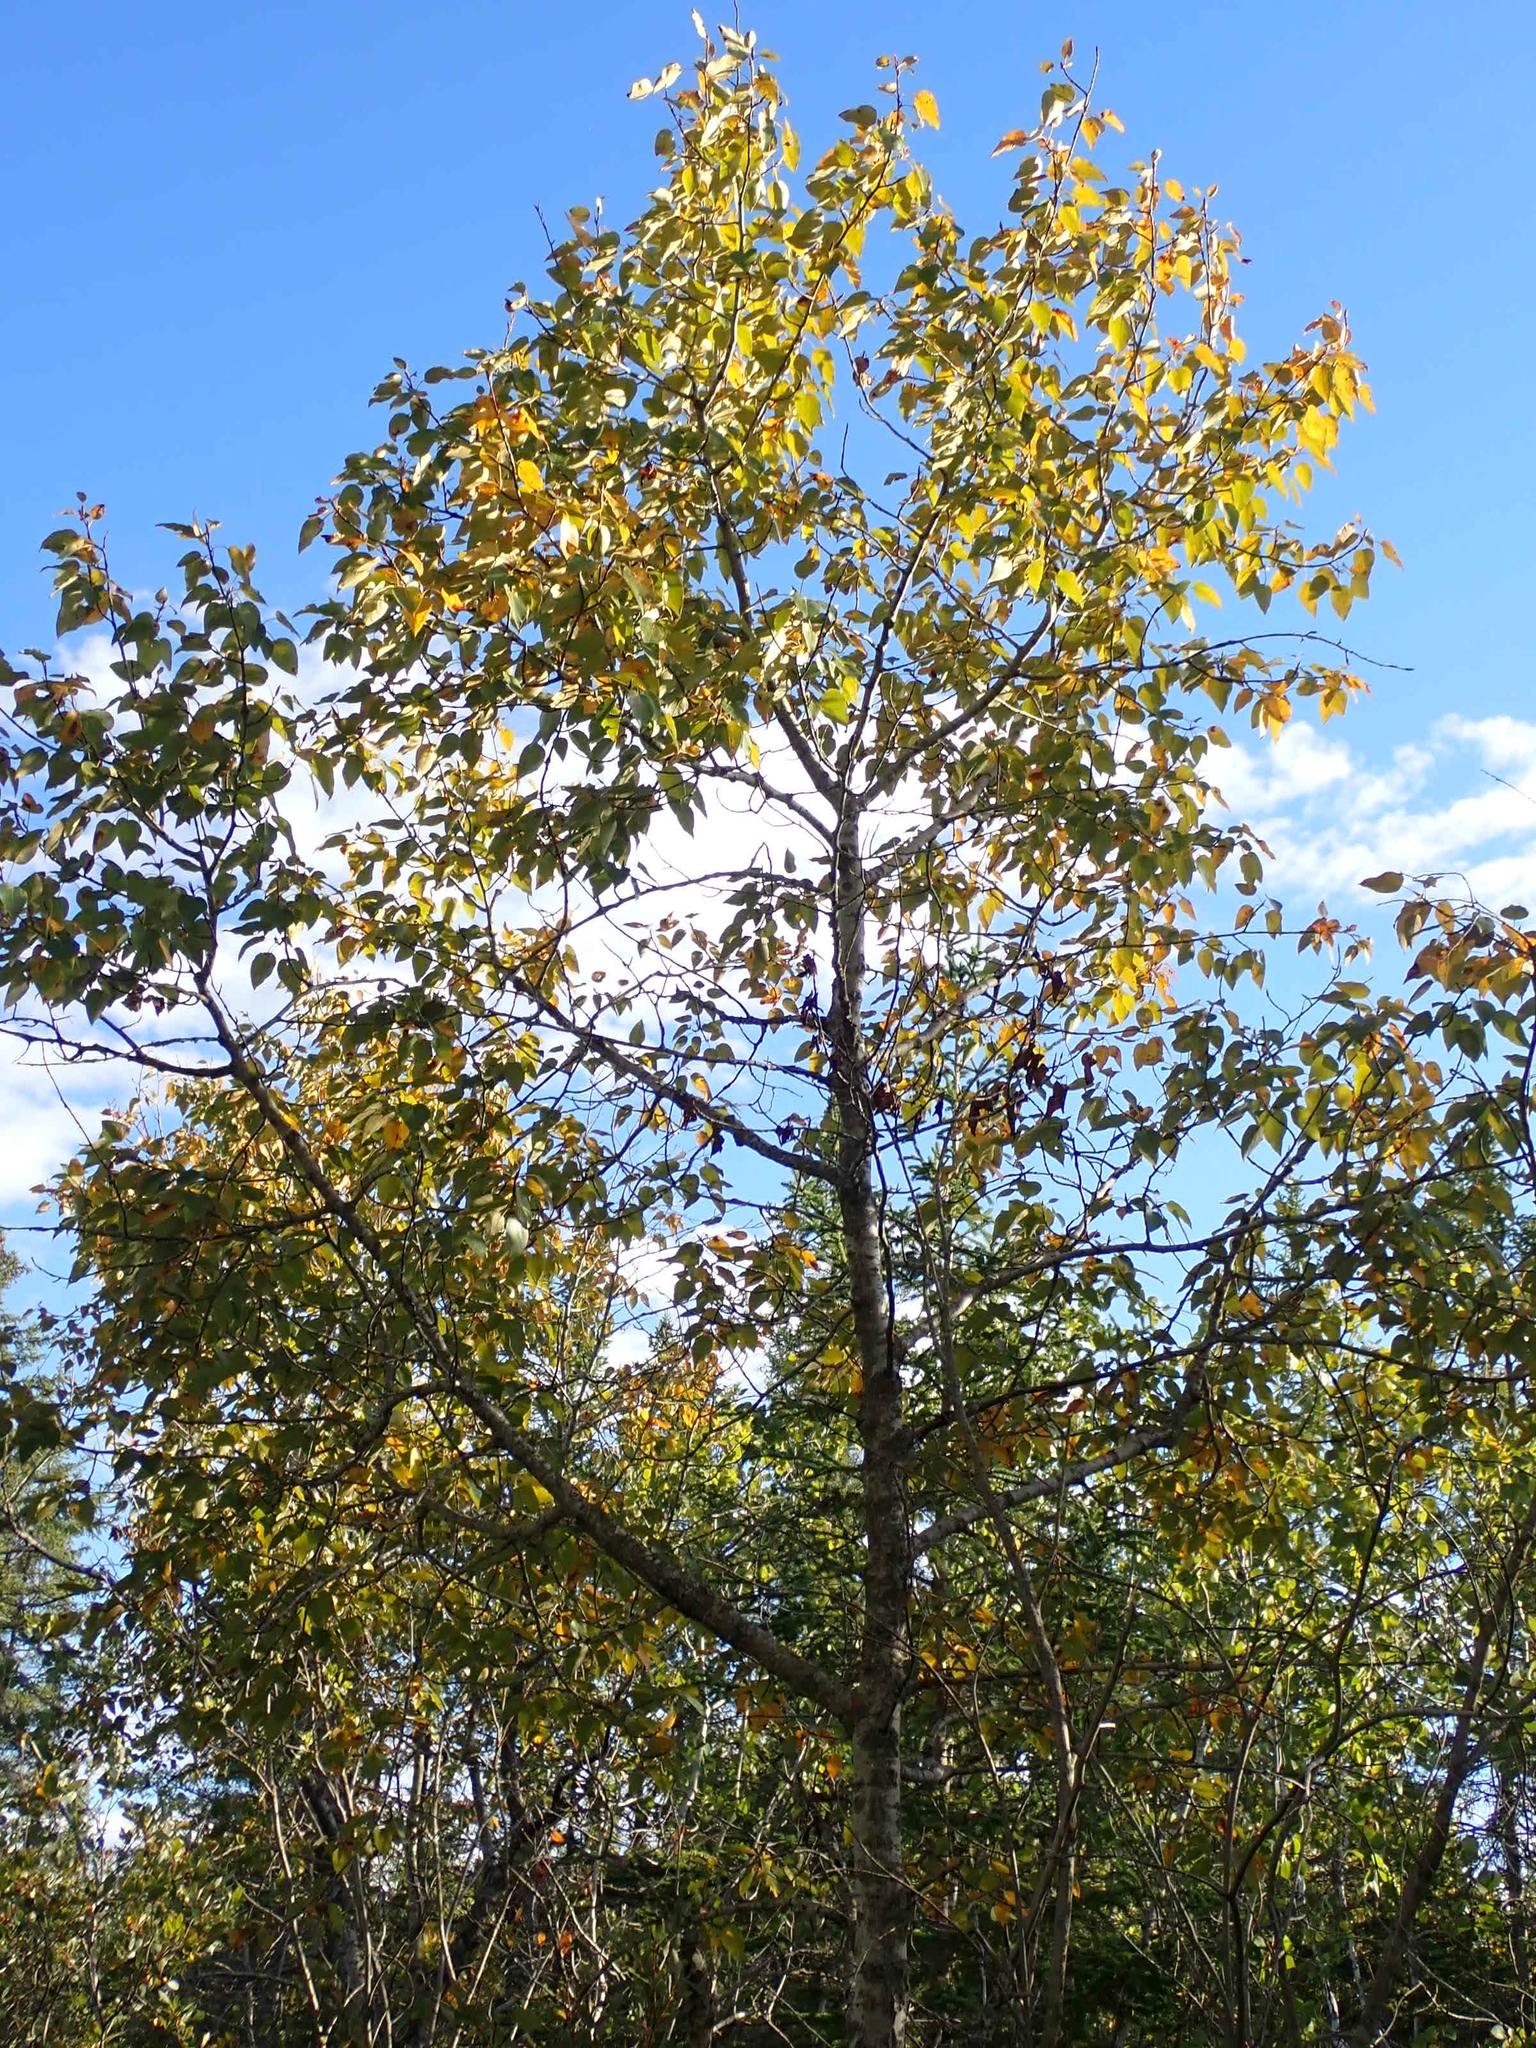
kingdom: Plantae
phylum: Tracheophyta
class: Magnoliopsida
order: Malpighiales
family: Salicaceae
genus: Populus
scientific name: Populus balsamifera
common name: Balsam poplar
